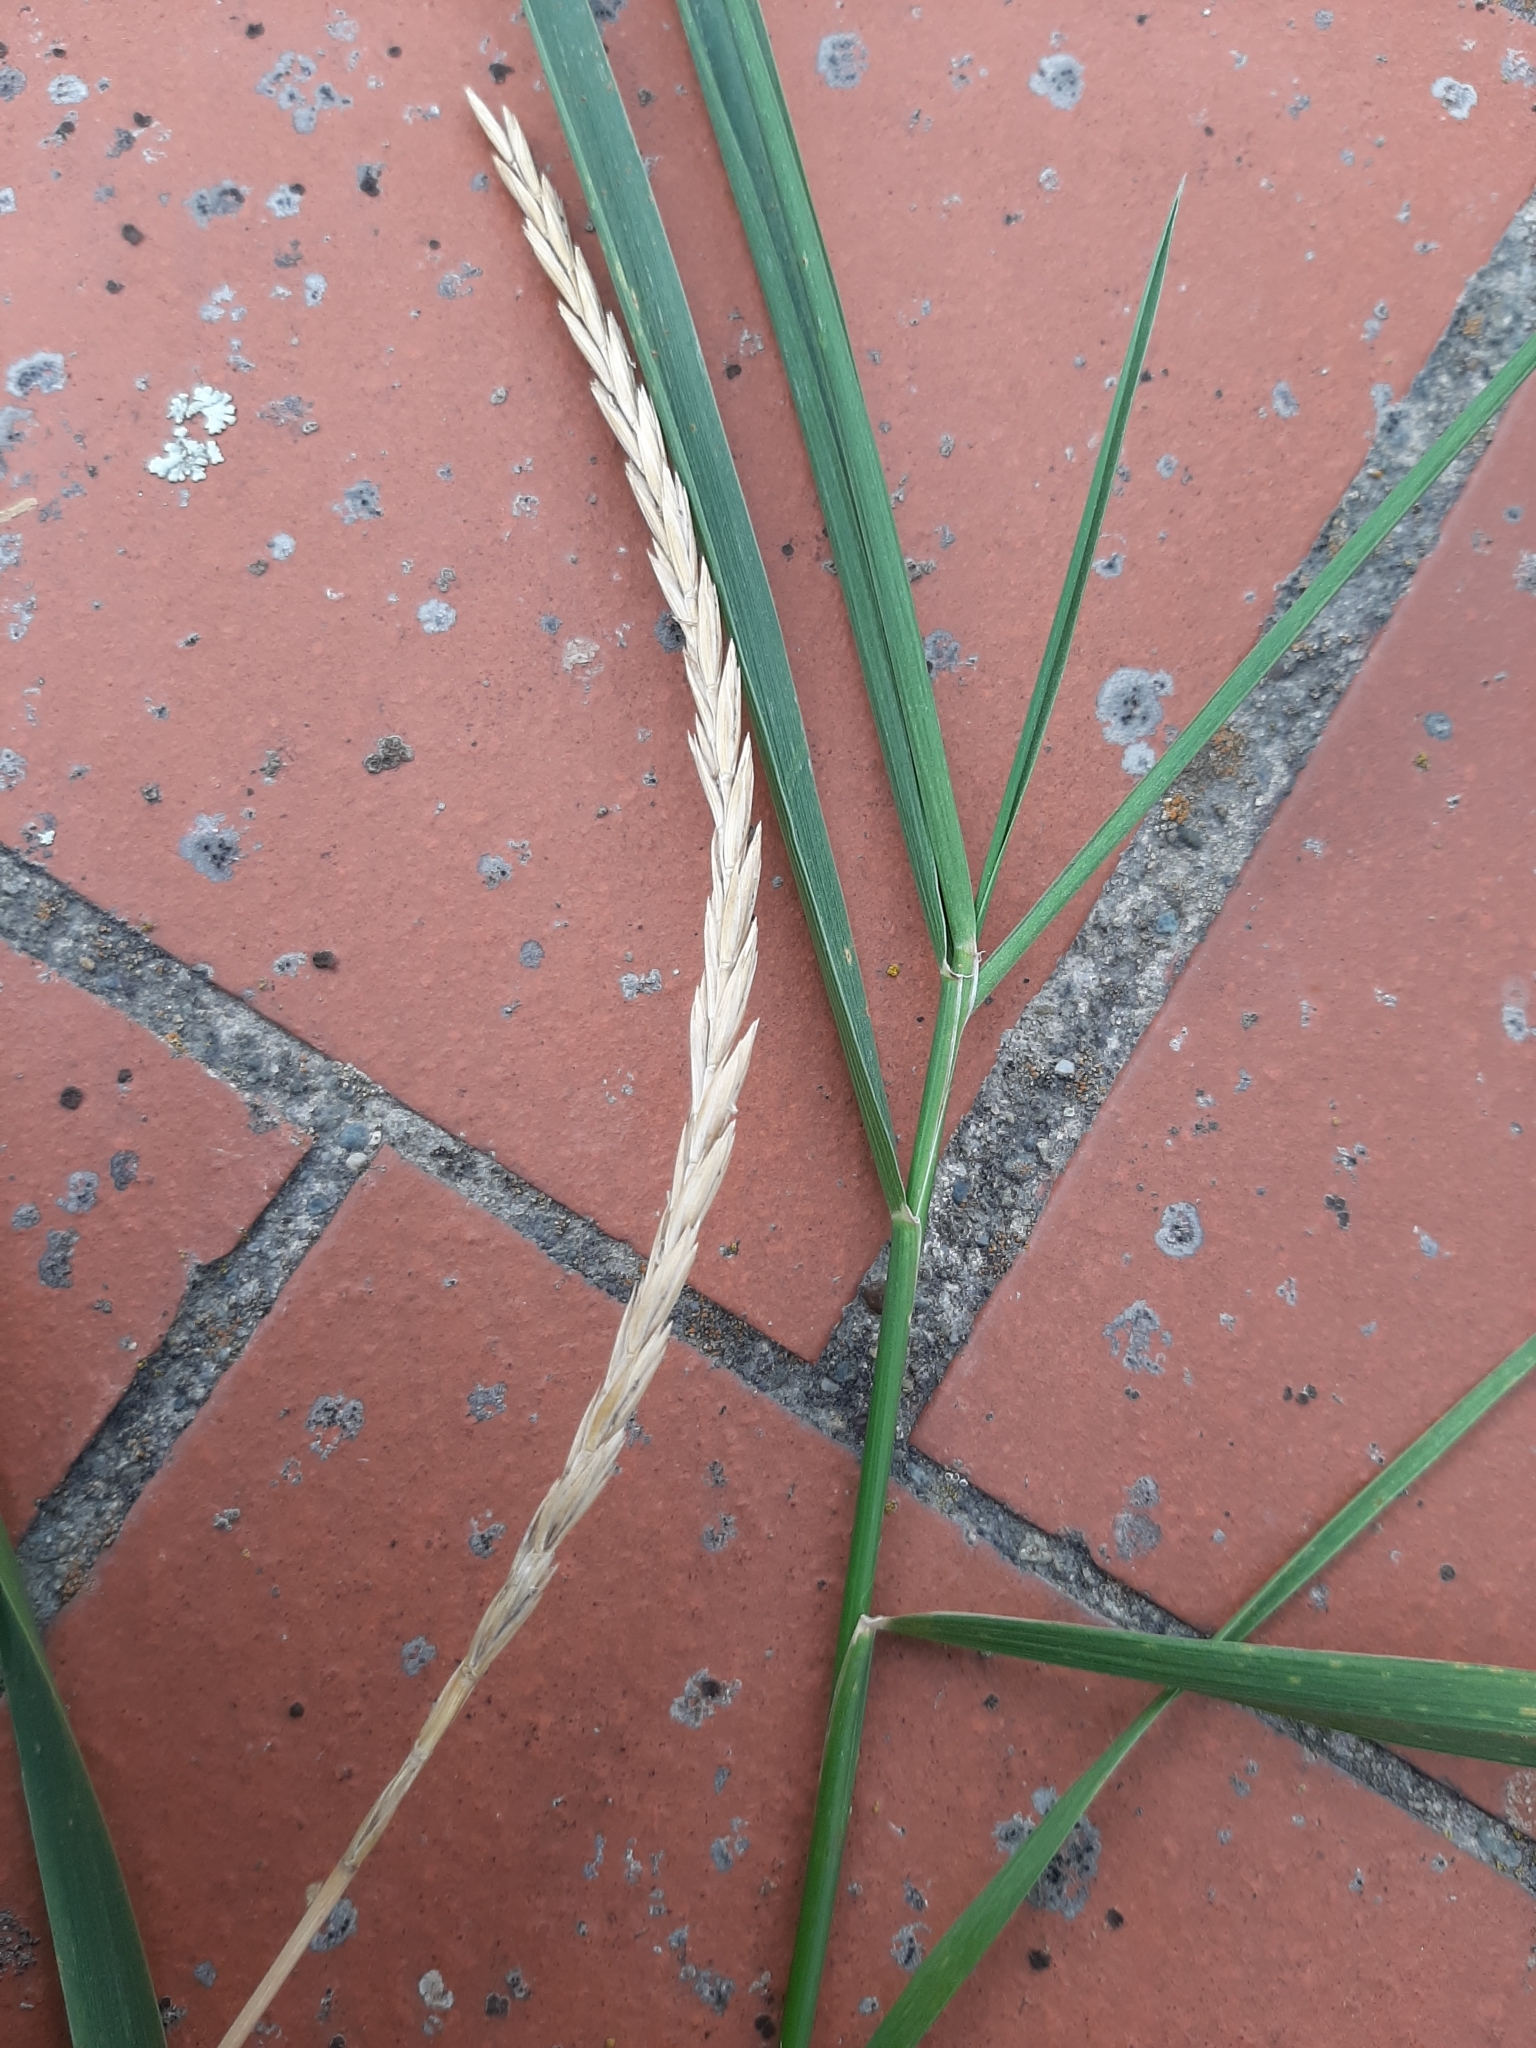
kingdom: Plantae
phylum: Tracheophyta
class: Liliopsida
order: Poales
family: Poaceae
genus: Elymus
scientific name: Elymus repens
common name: Quackgrass
